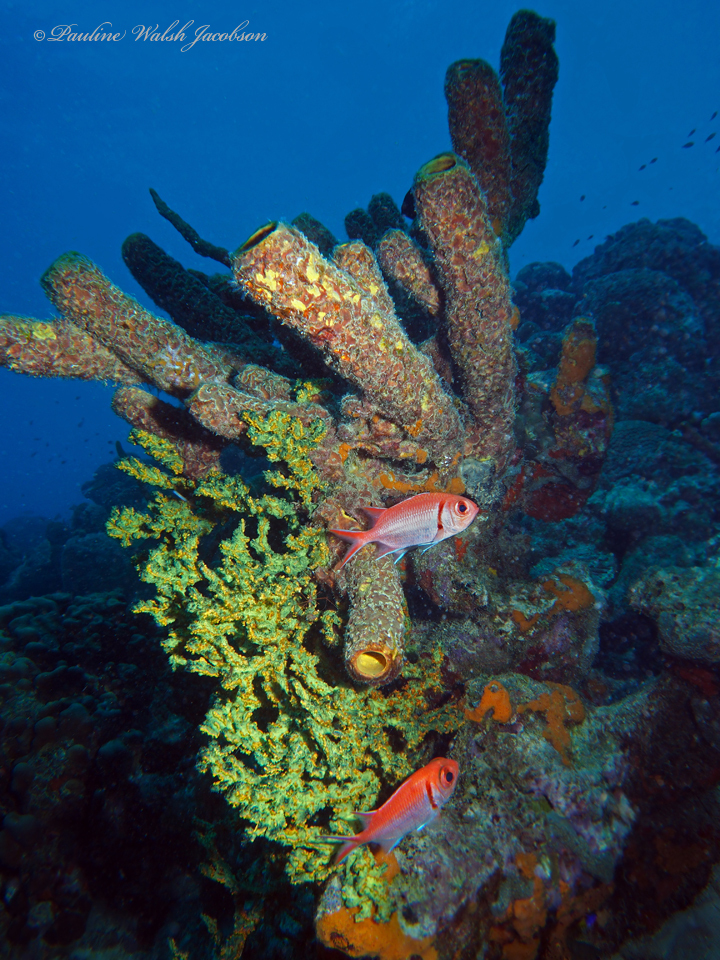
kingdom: Animalia
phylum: Chordata
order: Beryciformes
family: Holocentridae
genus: Myripristis
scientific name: Myripristis jacobus
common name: Blackbar soldierfish
